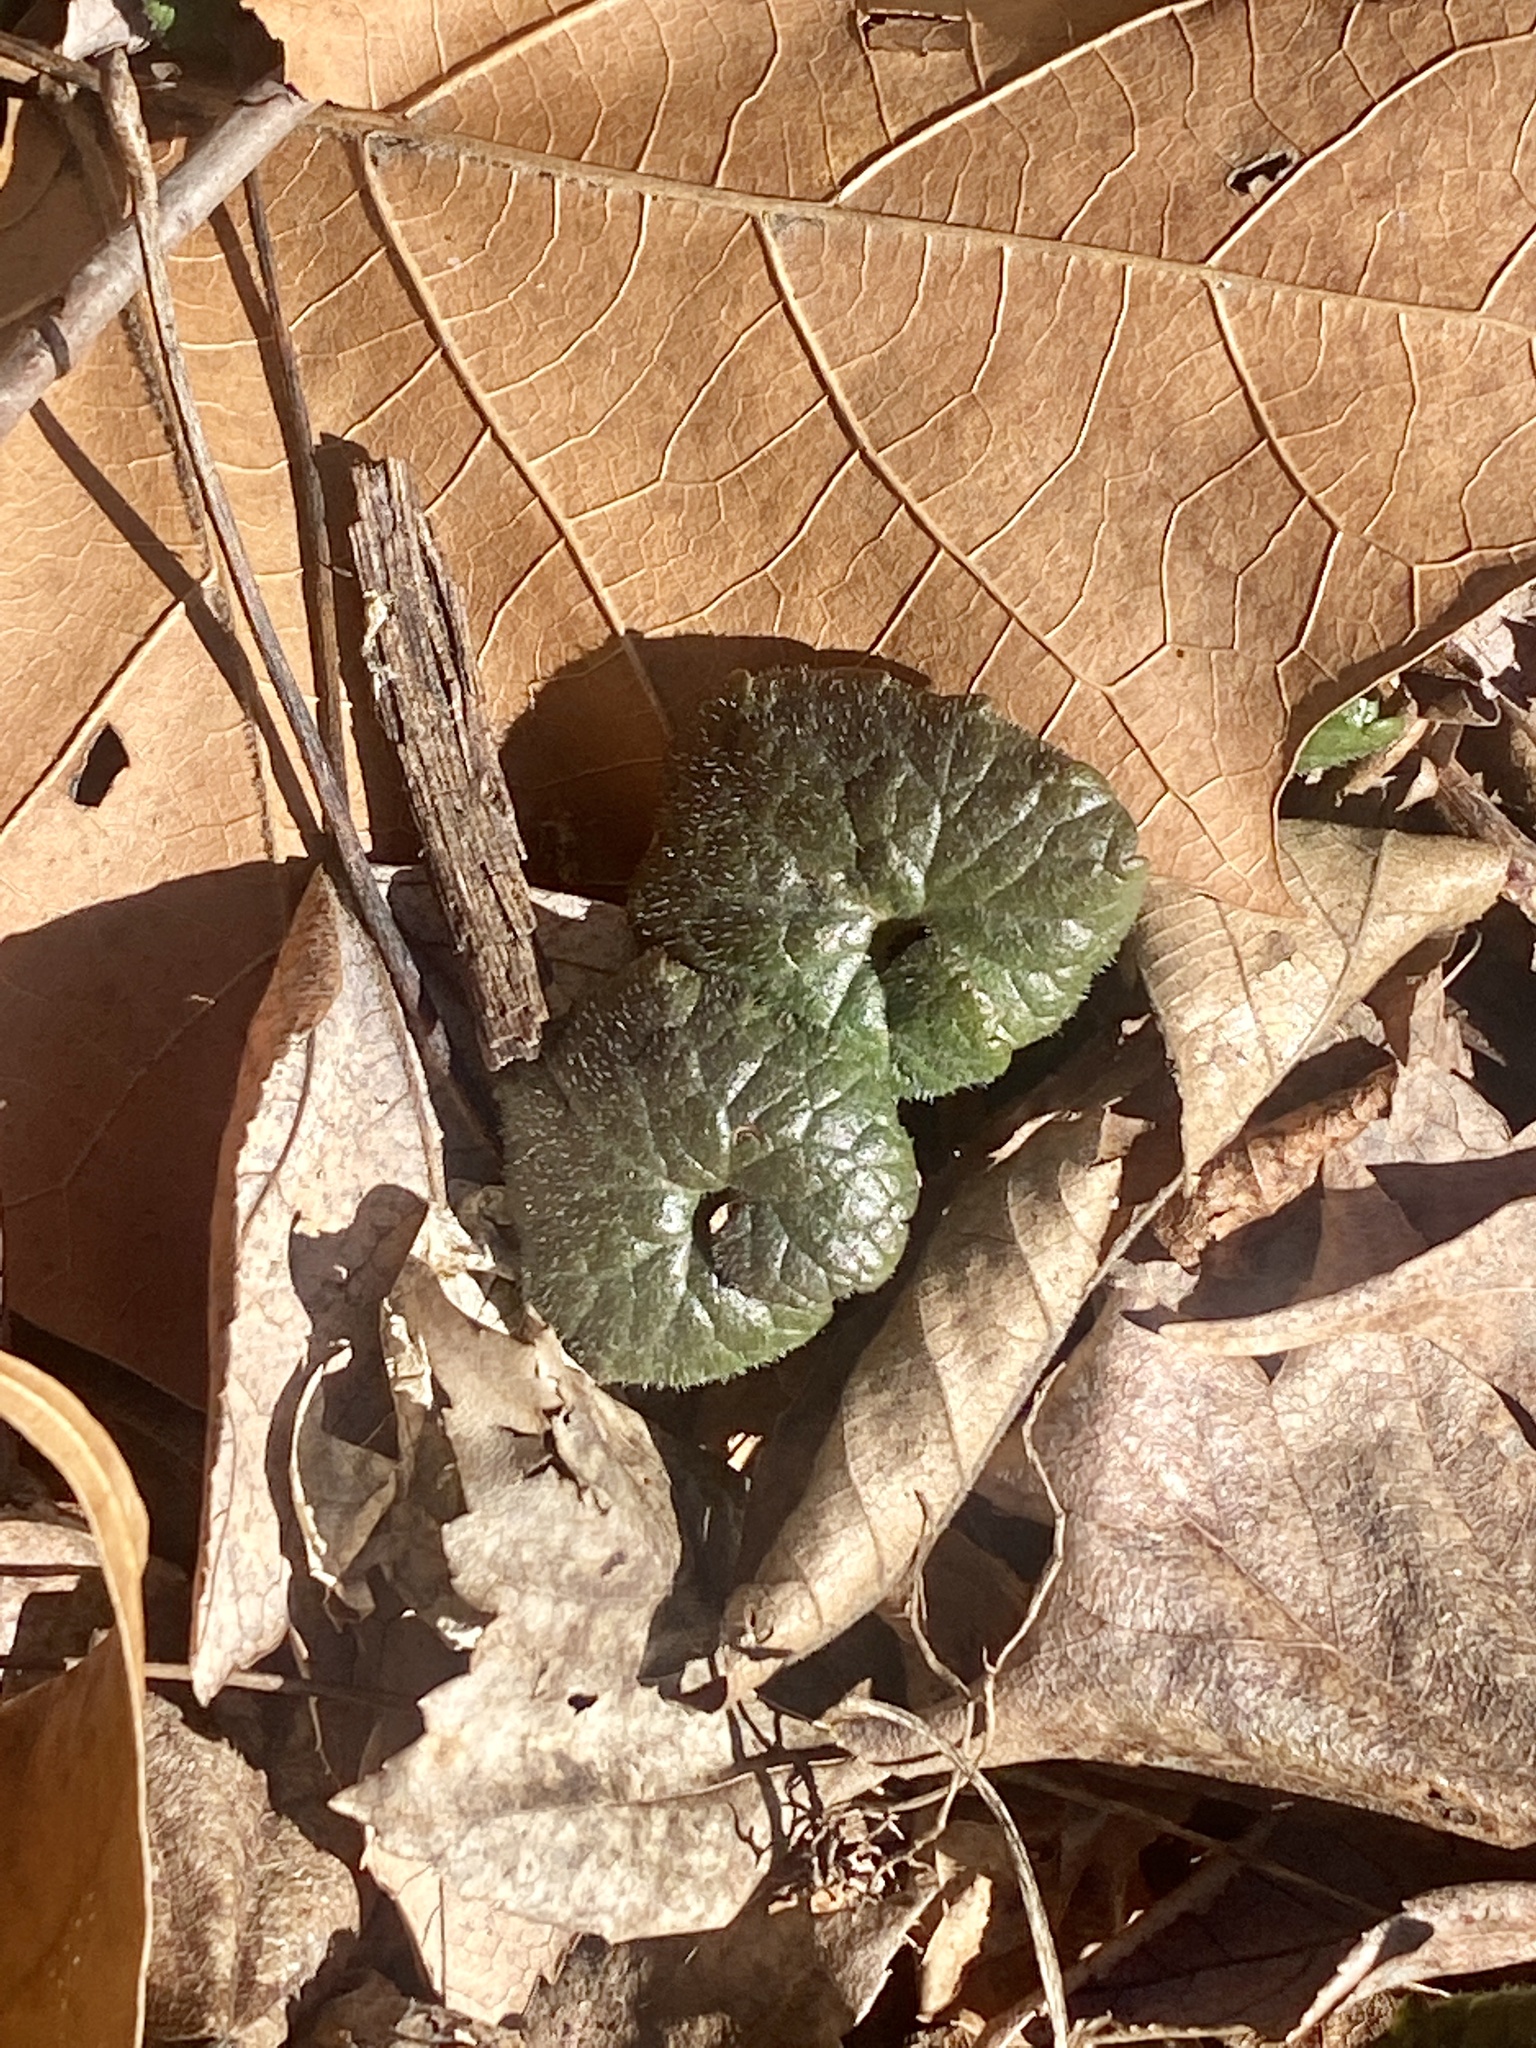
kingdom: Plantae
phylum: Tracheophyta
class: Magnoliopsida
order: Lamiales
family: Lamiaceae
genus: Glechoma
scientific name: Glechoma hederacea
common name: Ground ivy
